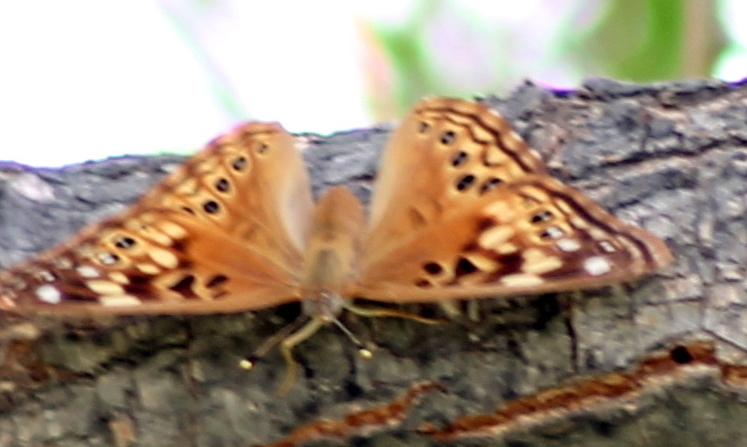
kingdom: Animalia
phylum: Arthropoda
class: Insecta
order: Lepidoptera
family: Nymphalidae
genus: Asterocampa
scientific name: Asterocampa celtis
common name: Hackberry emperor
